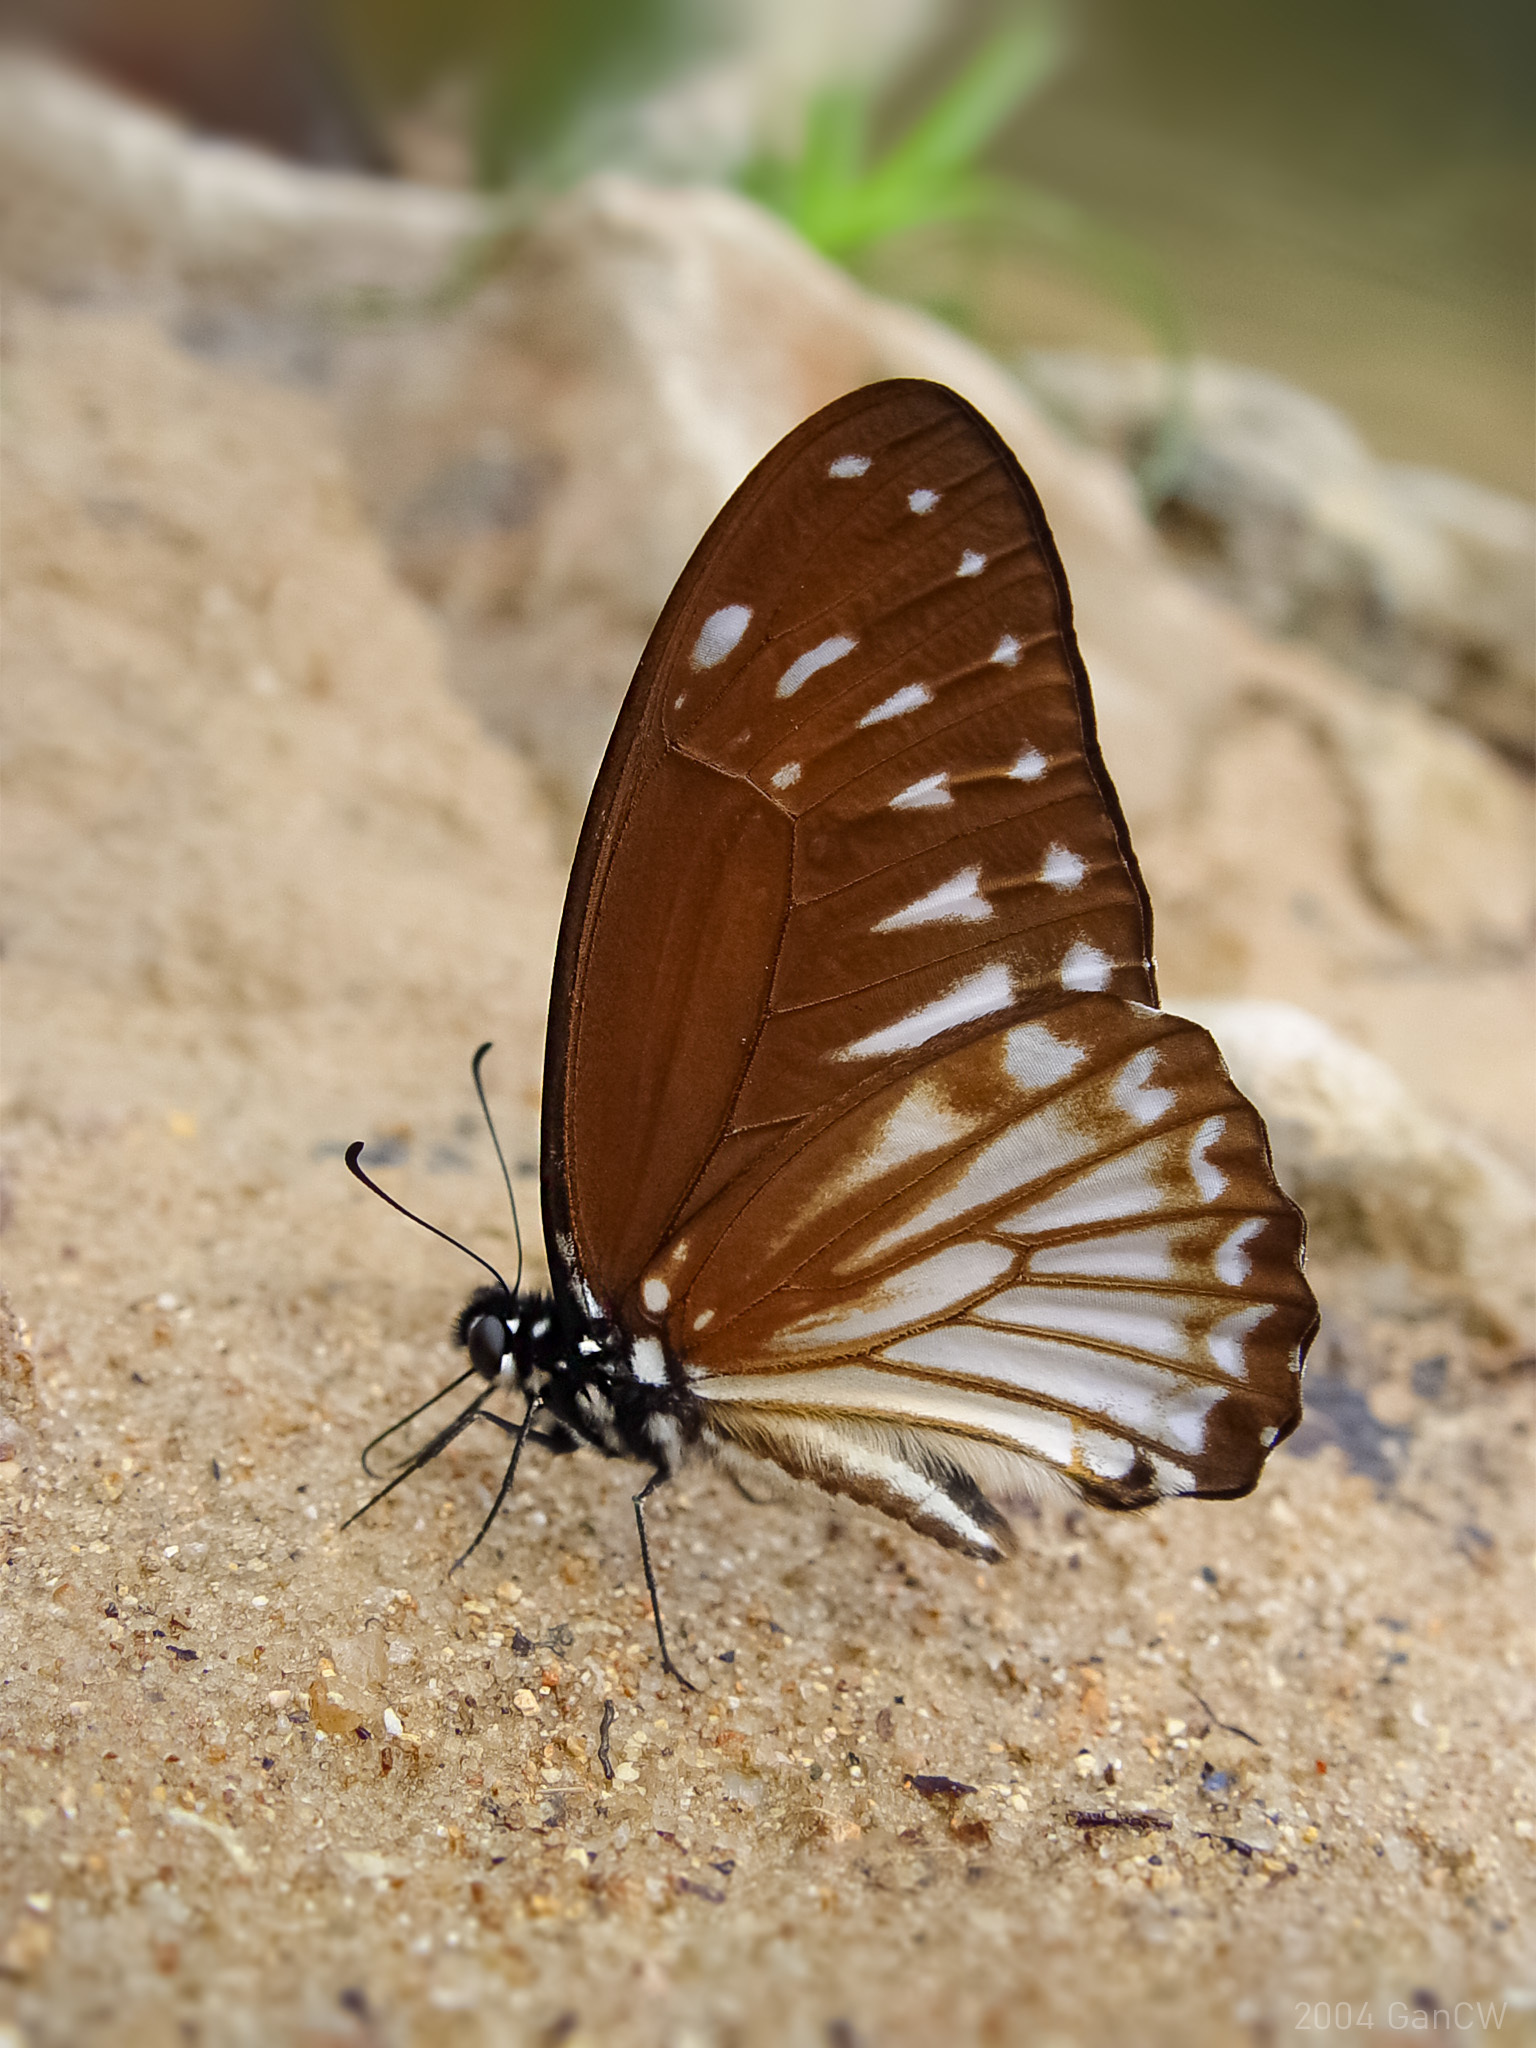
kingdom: Animalia
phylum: Arthropoda
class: Insecta
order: Lepidoptera
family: Papilionidae
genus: Graphium
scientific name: Graphium ramaceus
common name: Pendlebury's zebra
